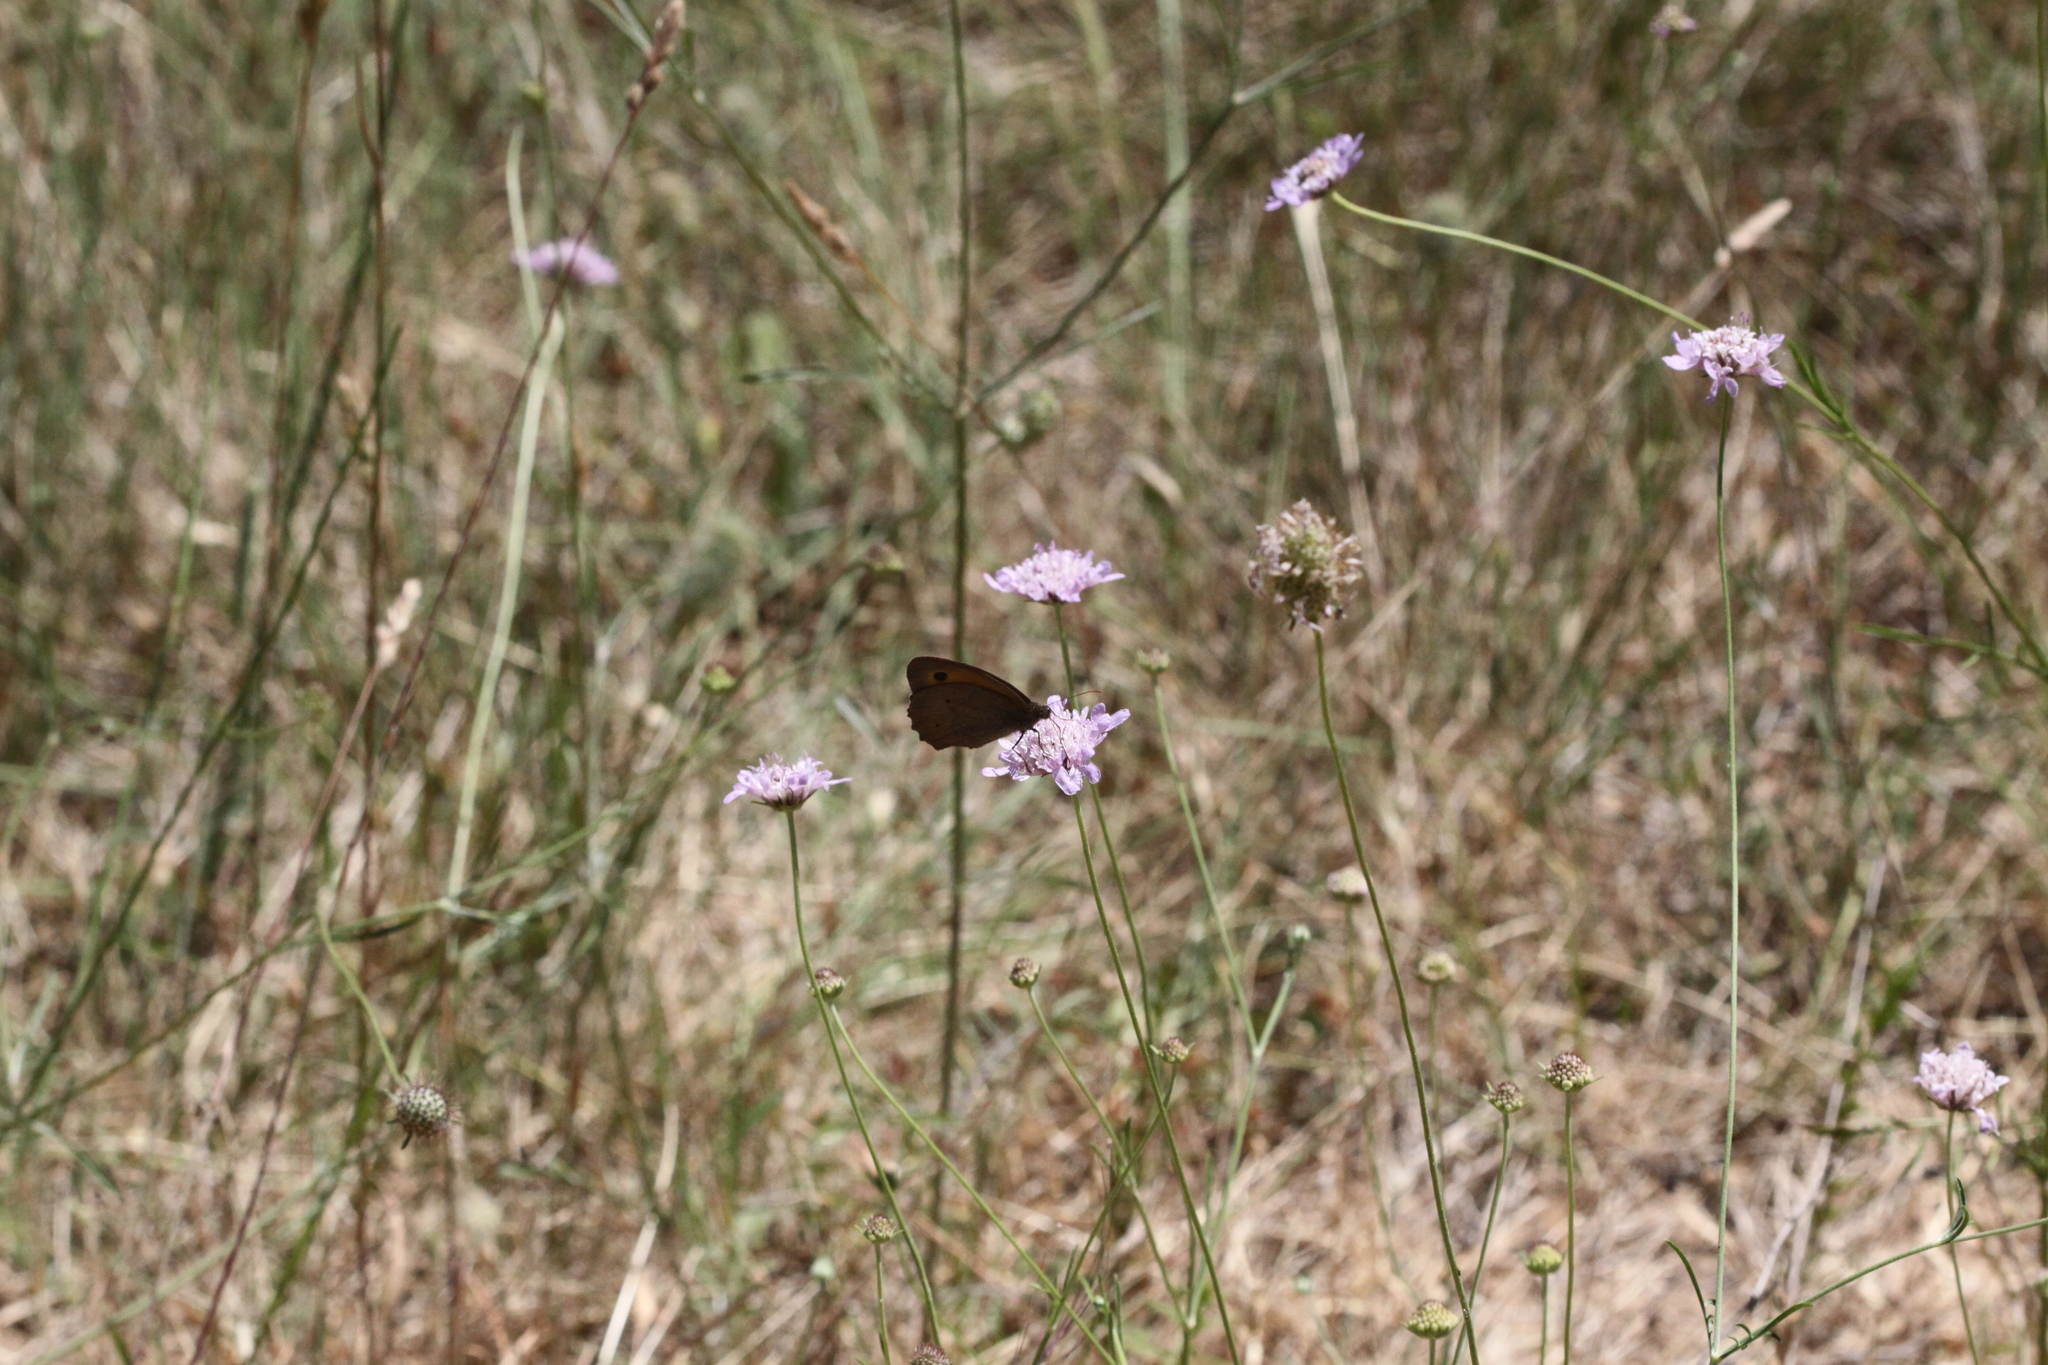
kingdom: Animalia
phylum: Arthropoda
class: Insecta
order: Lepidoptera
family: Nymphalidae
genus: Maniola
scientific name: Maniola jurtina
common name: Meadow brown
